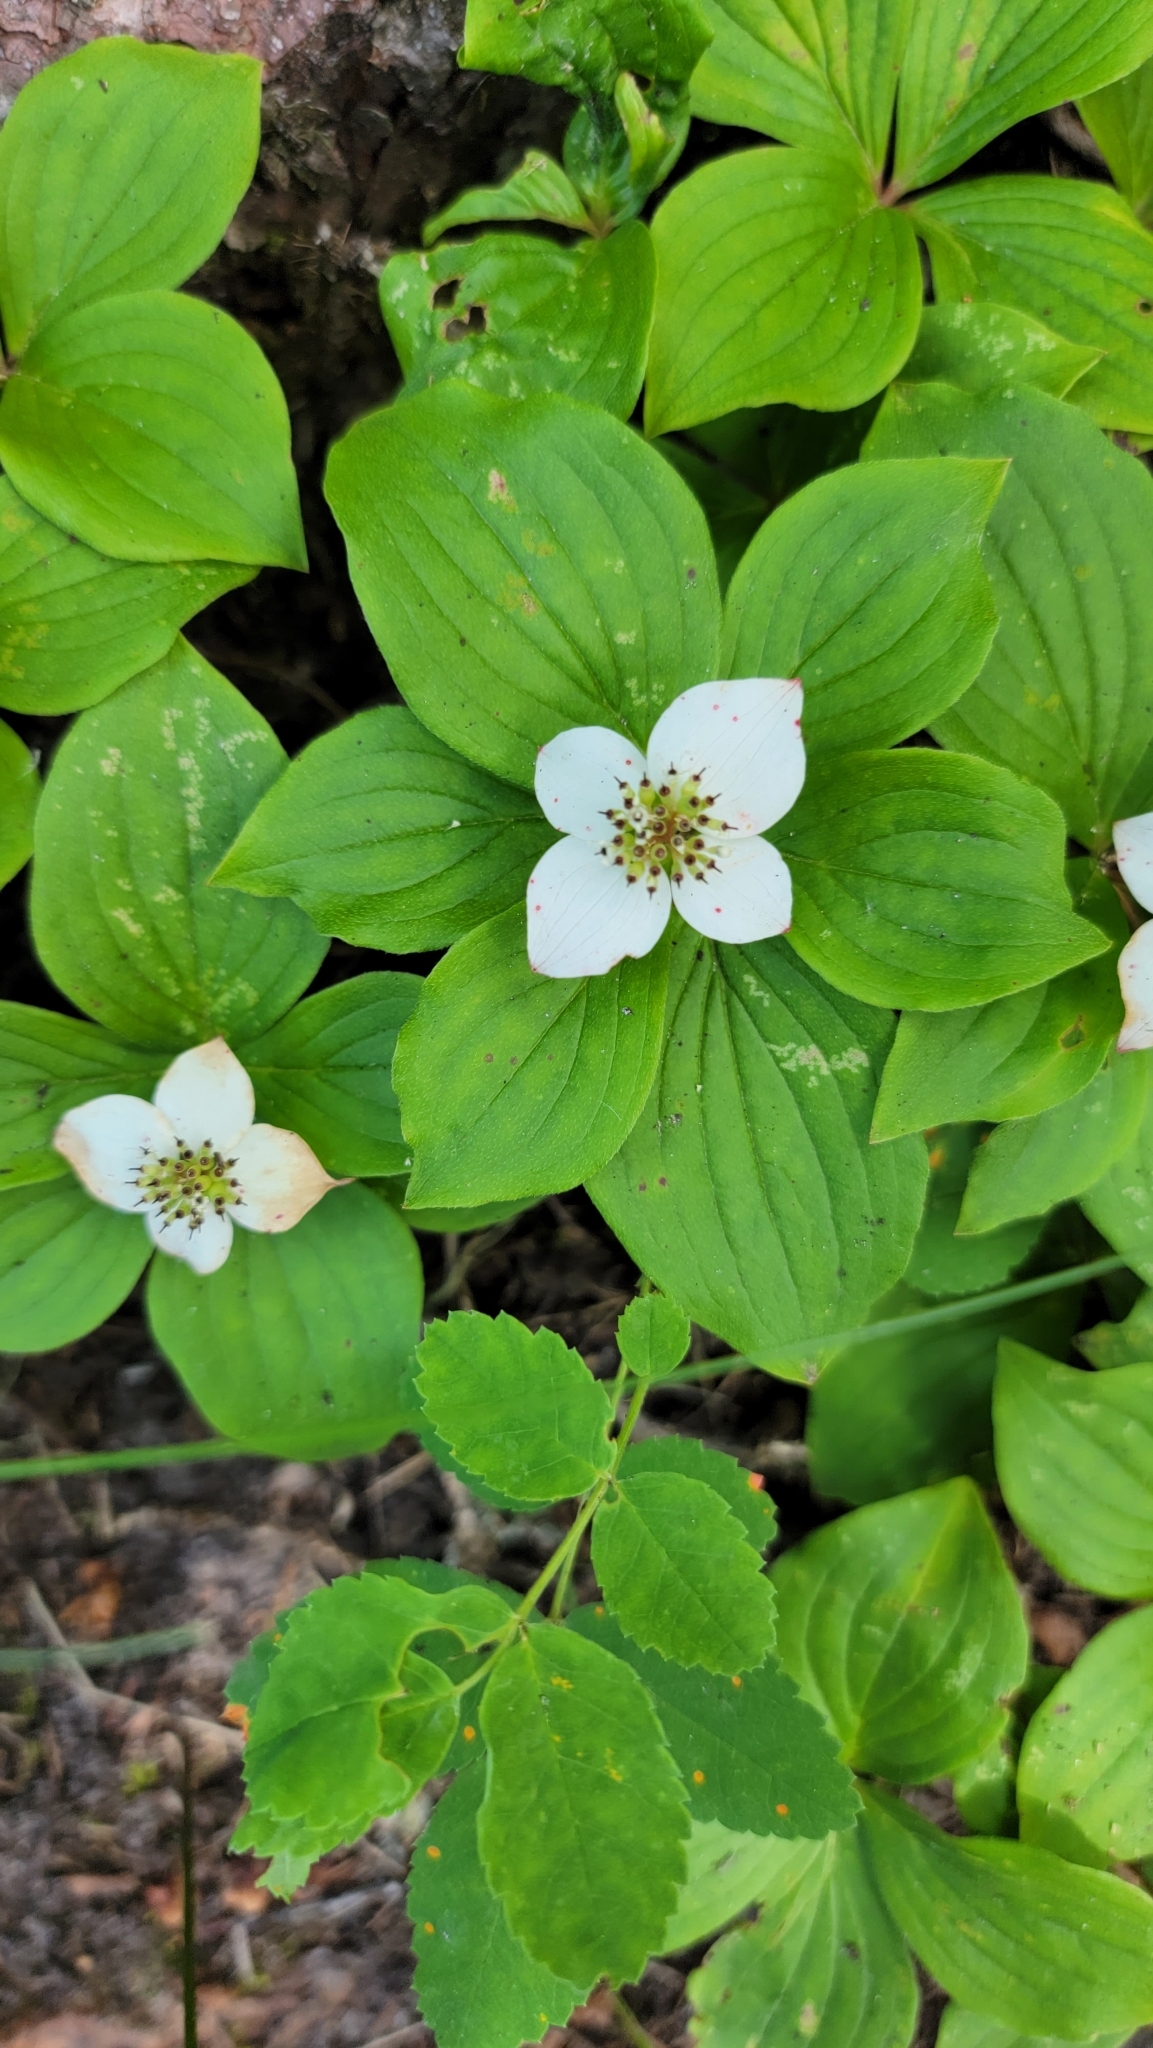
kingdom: Plantae
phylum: Tracheophyta
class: Magnoliopsida
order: Cornales
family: Cornaceae
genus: Cornus
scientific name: Cornus canadensis
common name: Creeping dogwood
